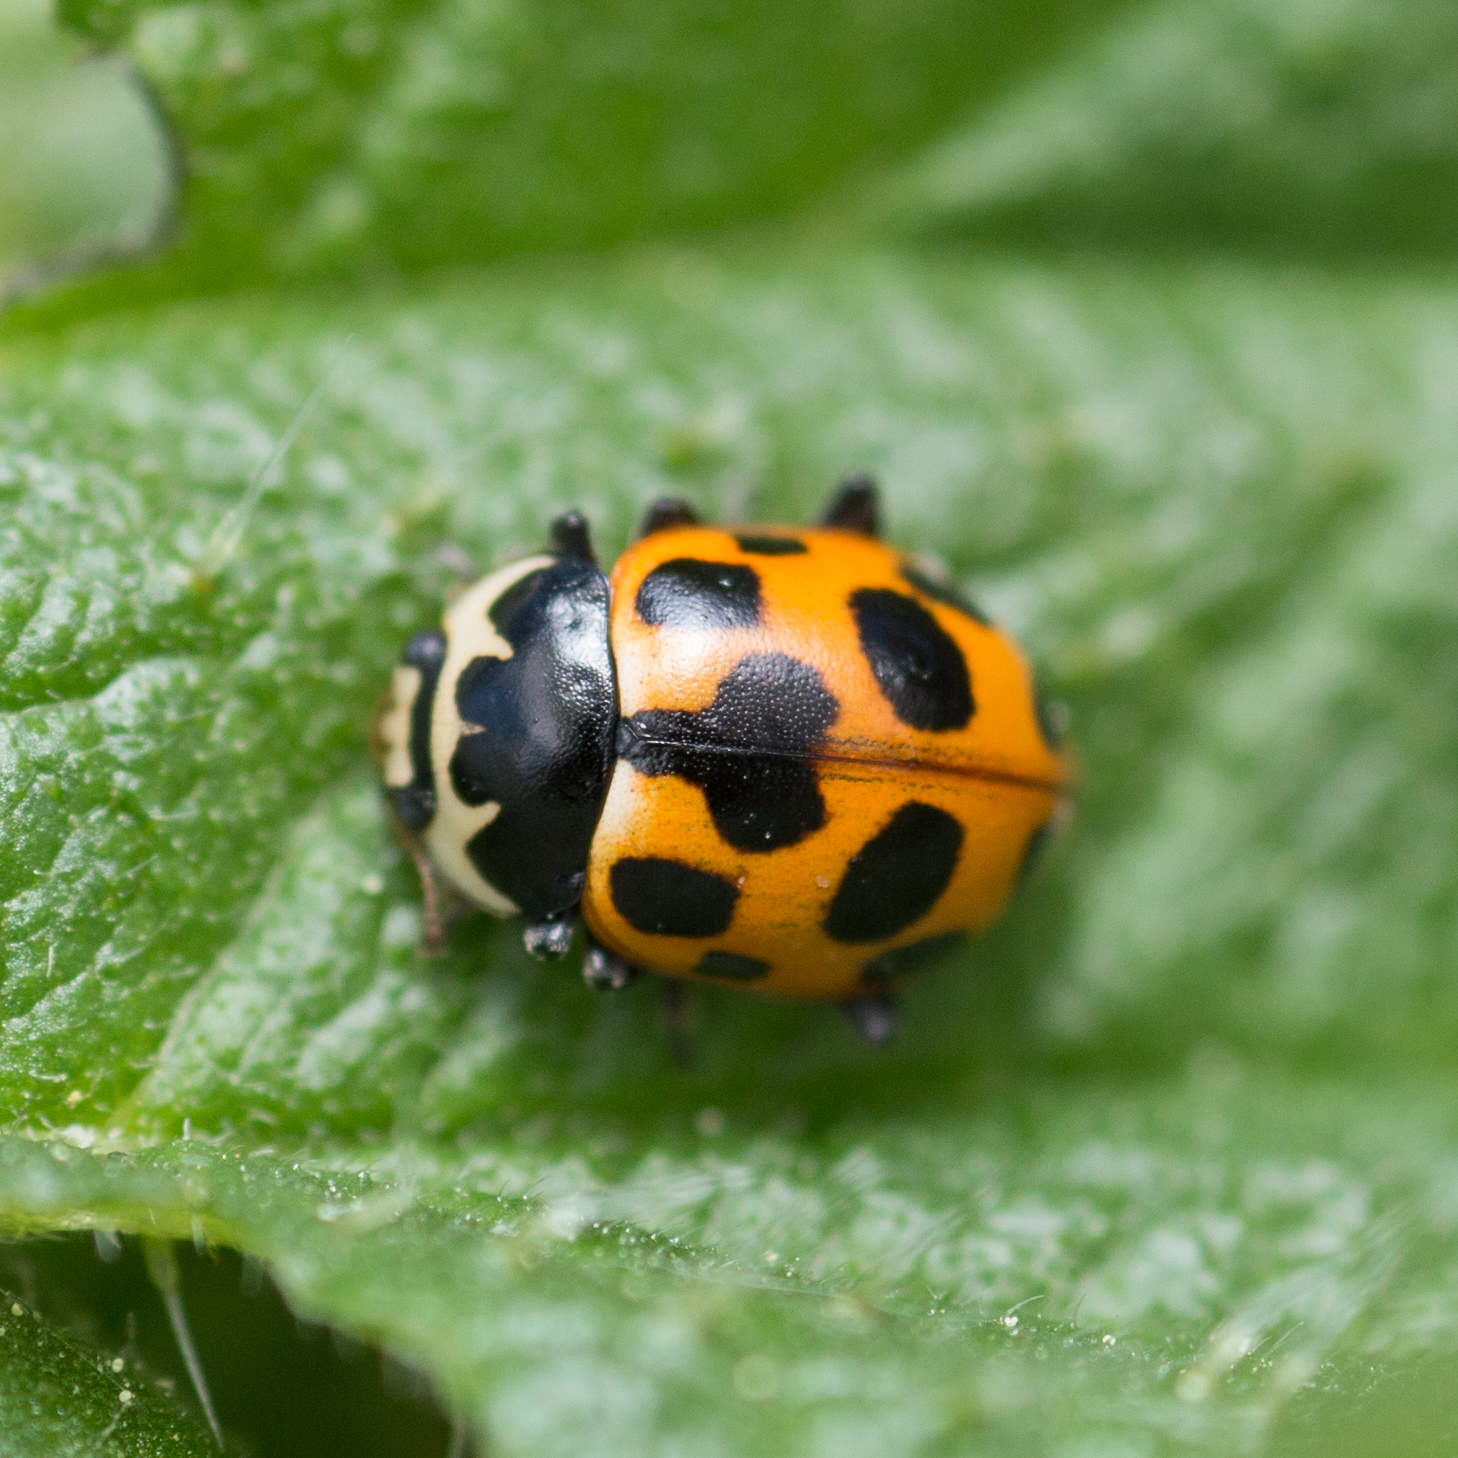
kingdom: Animalia
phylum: Arthropoda
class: Insecta
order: Coleoptera
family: Coccinellidae
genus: Ceratomegilla
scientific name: Ceratomegilla notata
